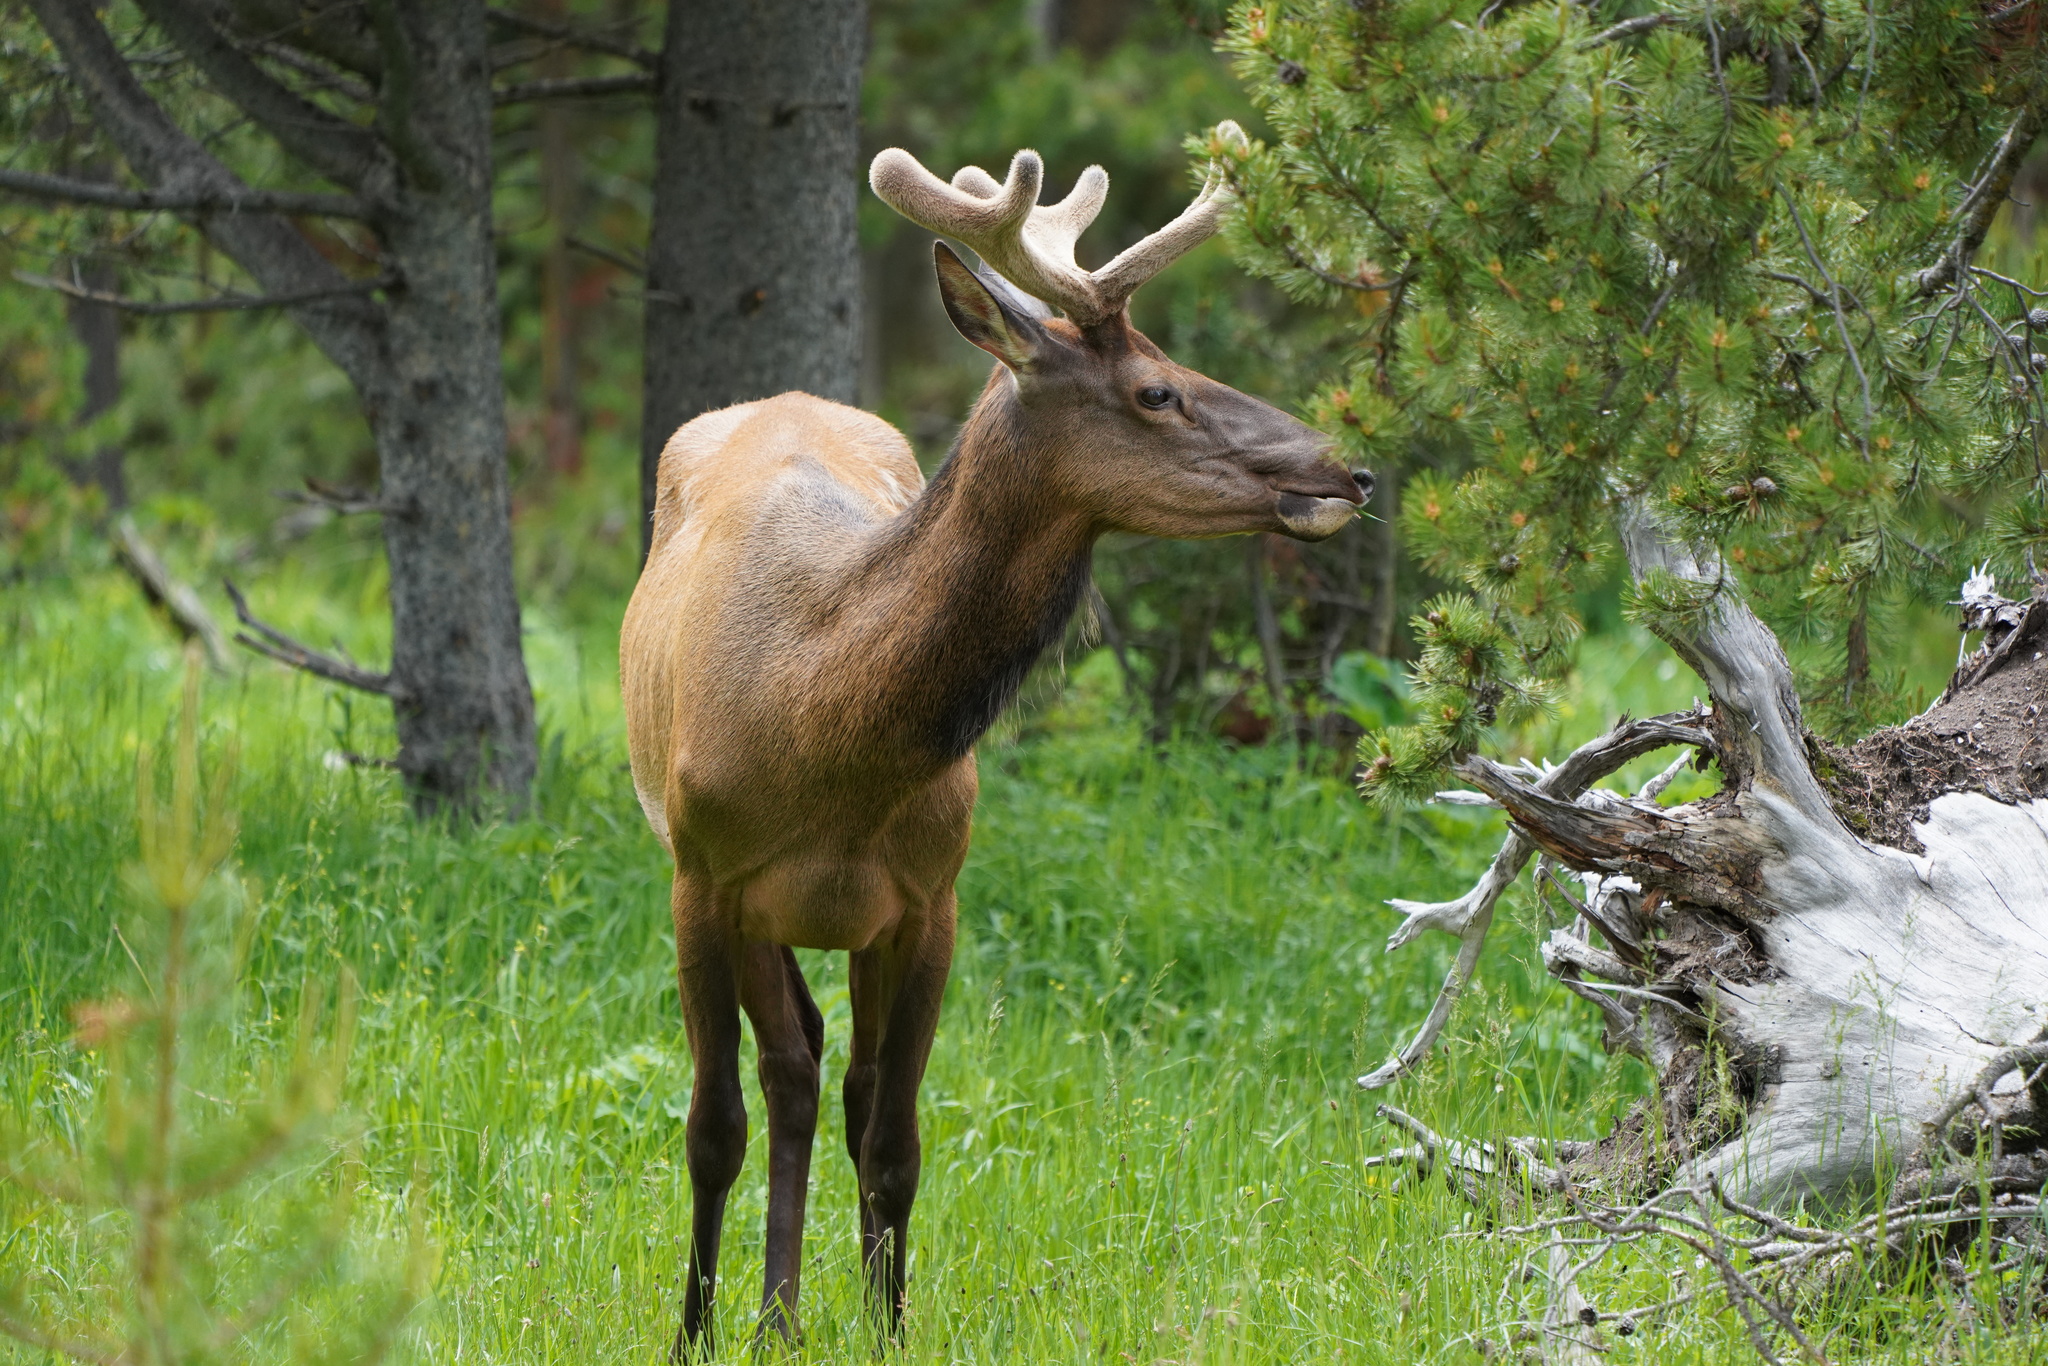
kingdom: Animalia
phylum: Chordata
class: Mammalia
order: Artiodactyla
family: Cervidae
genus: Cervus
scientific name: Cervus elaphus
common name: Red deer
